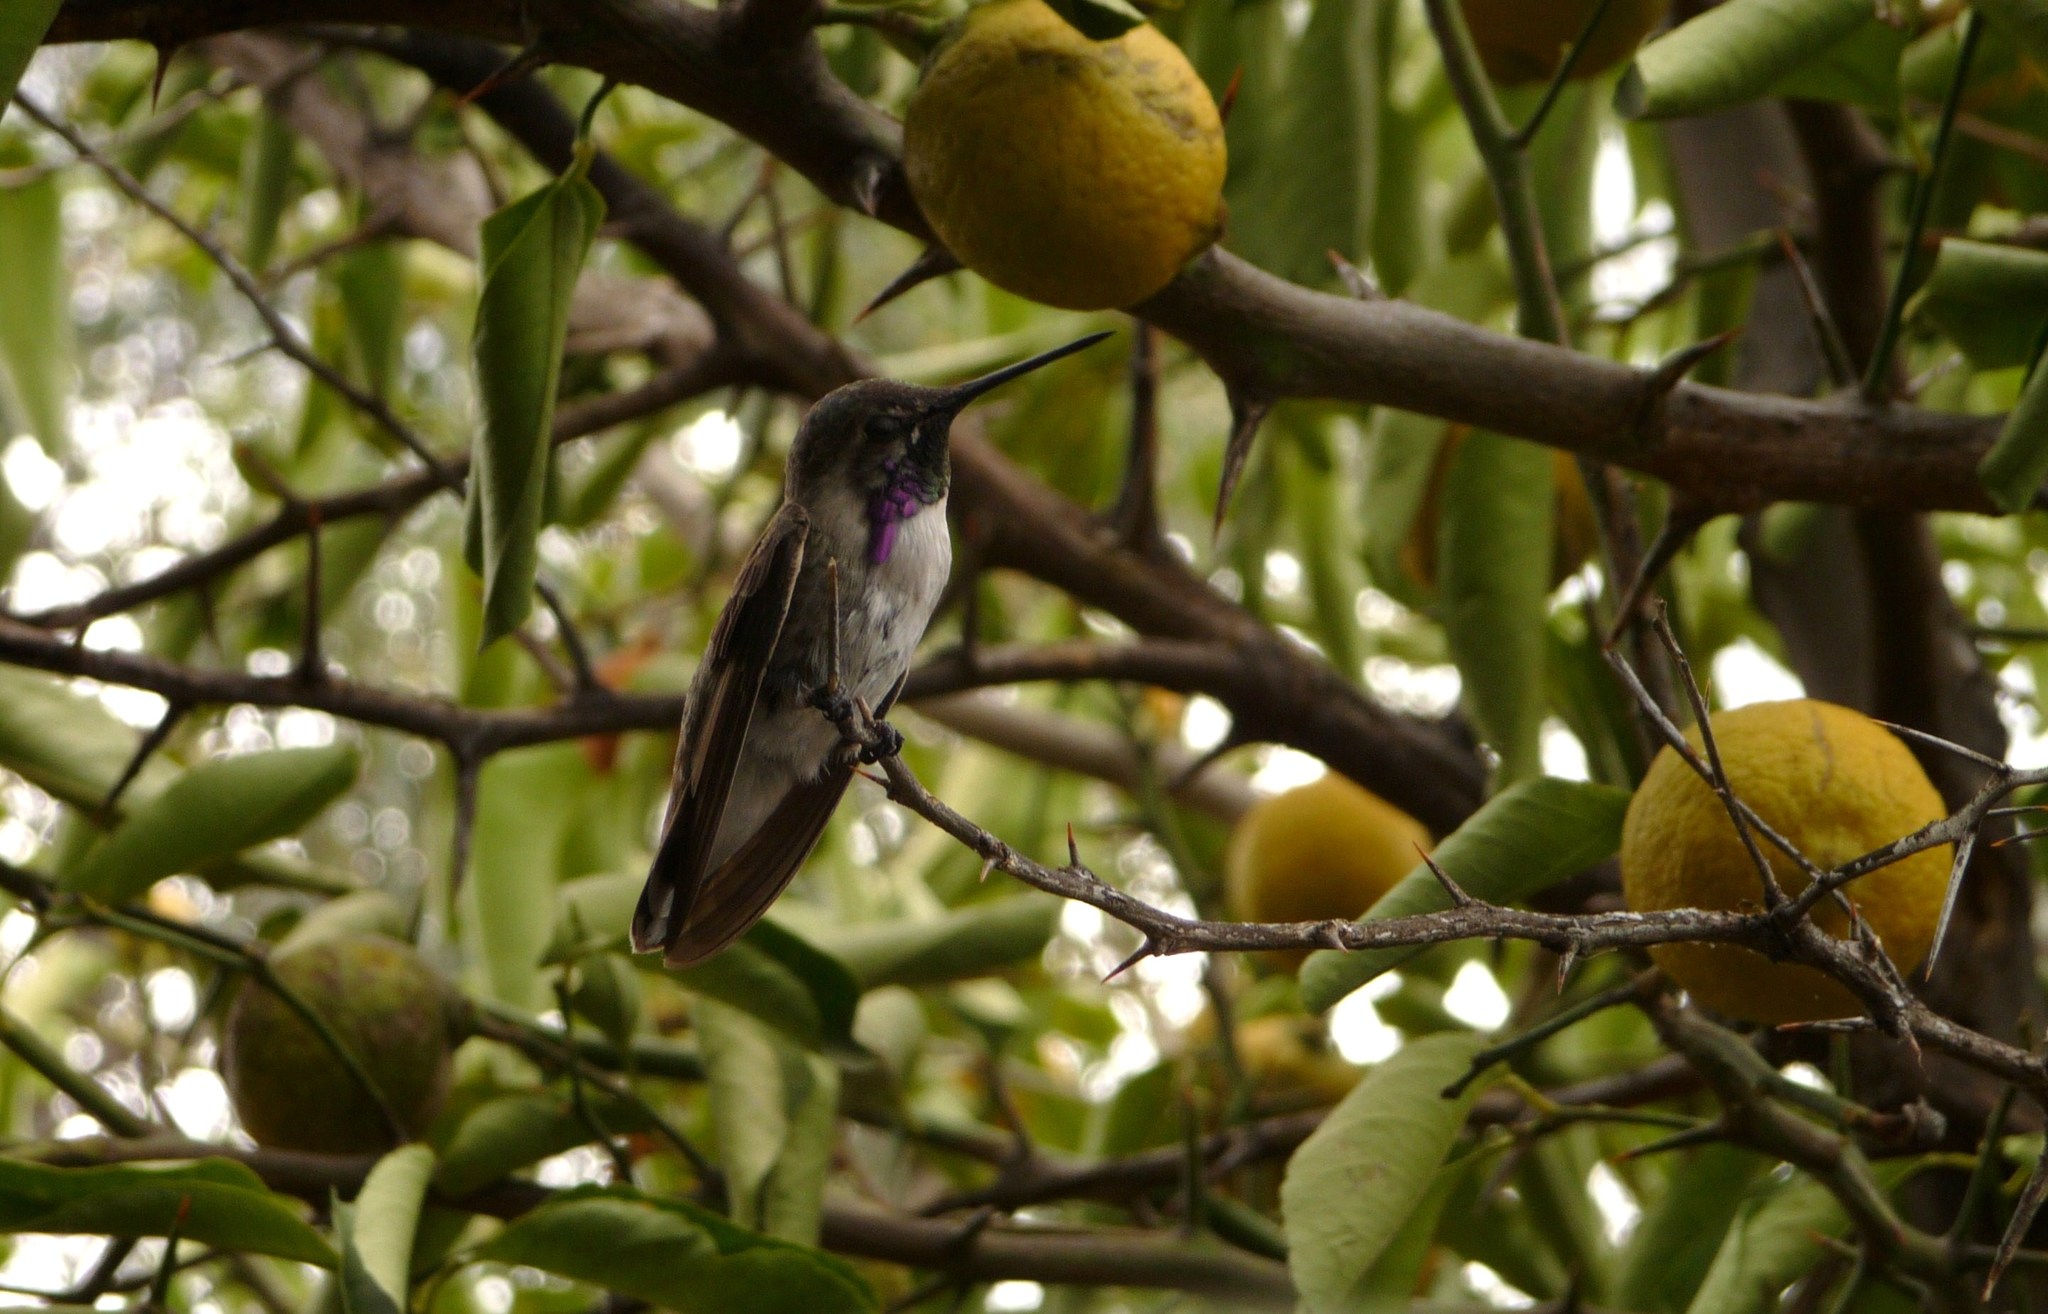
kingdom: Animalia
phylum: Chordata
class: Aves
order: Apodiformes
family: Trochilidae
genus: Calypte
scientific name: Calypte costae
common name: Costa's hummingbird
